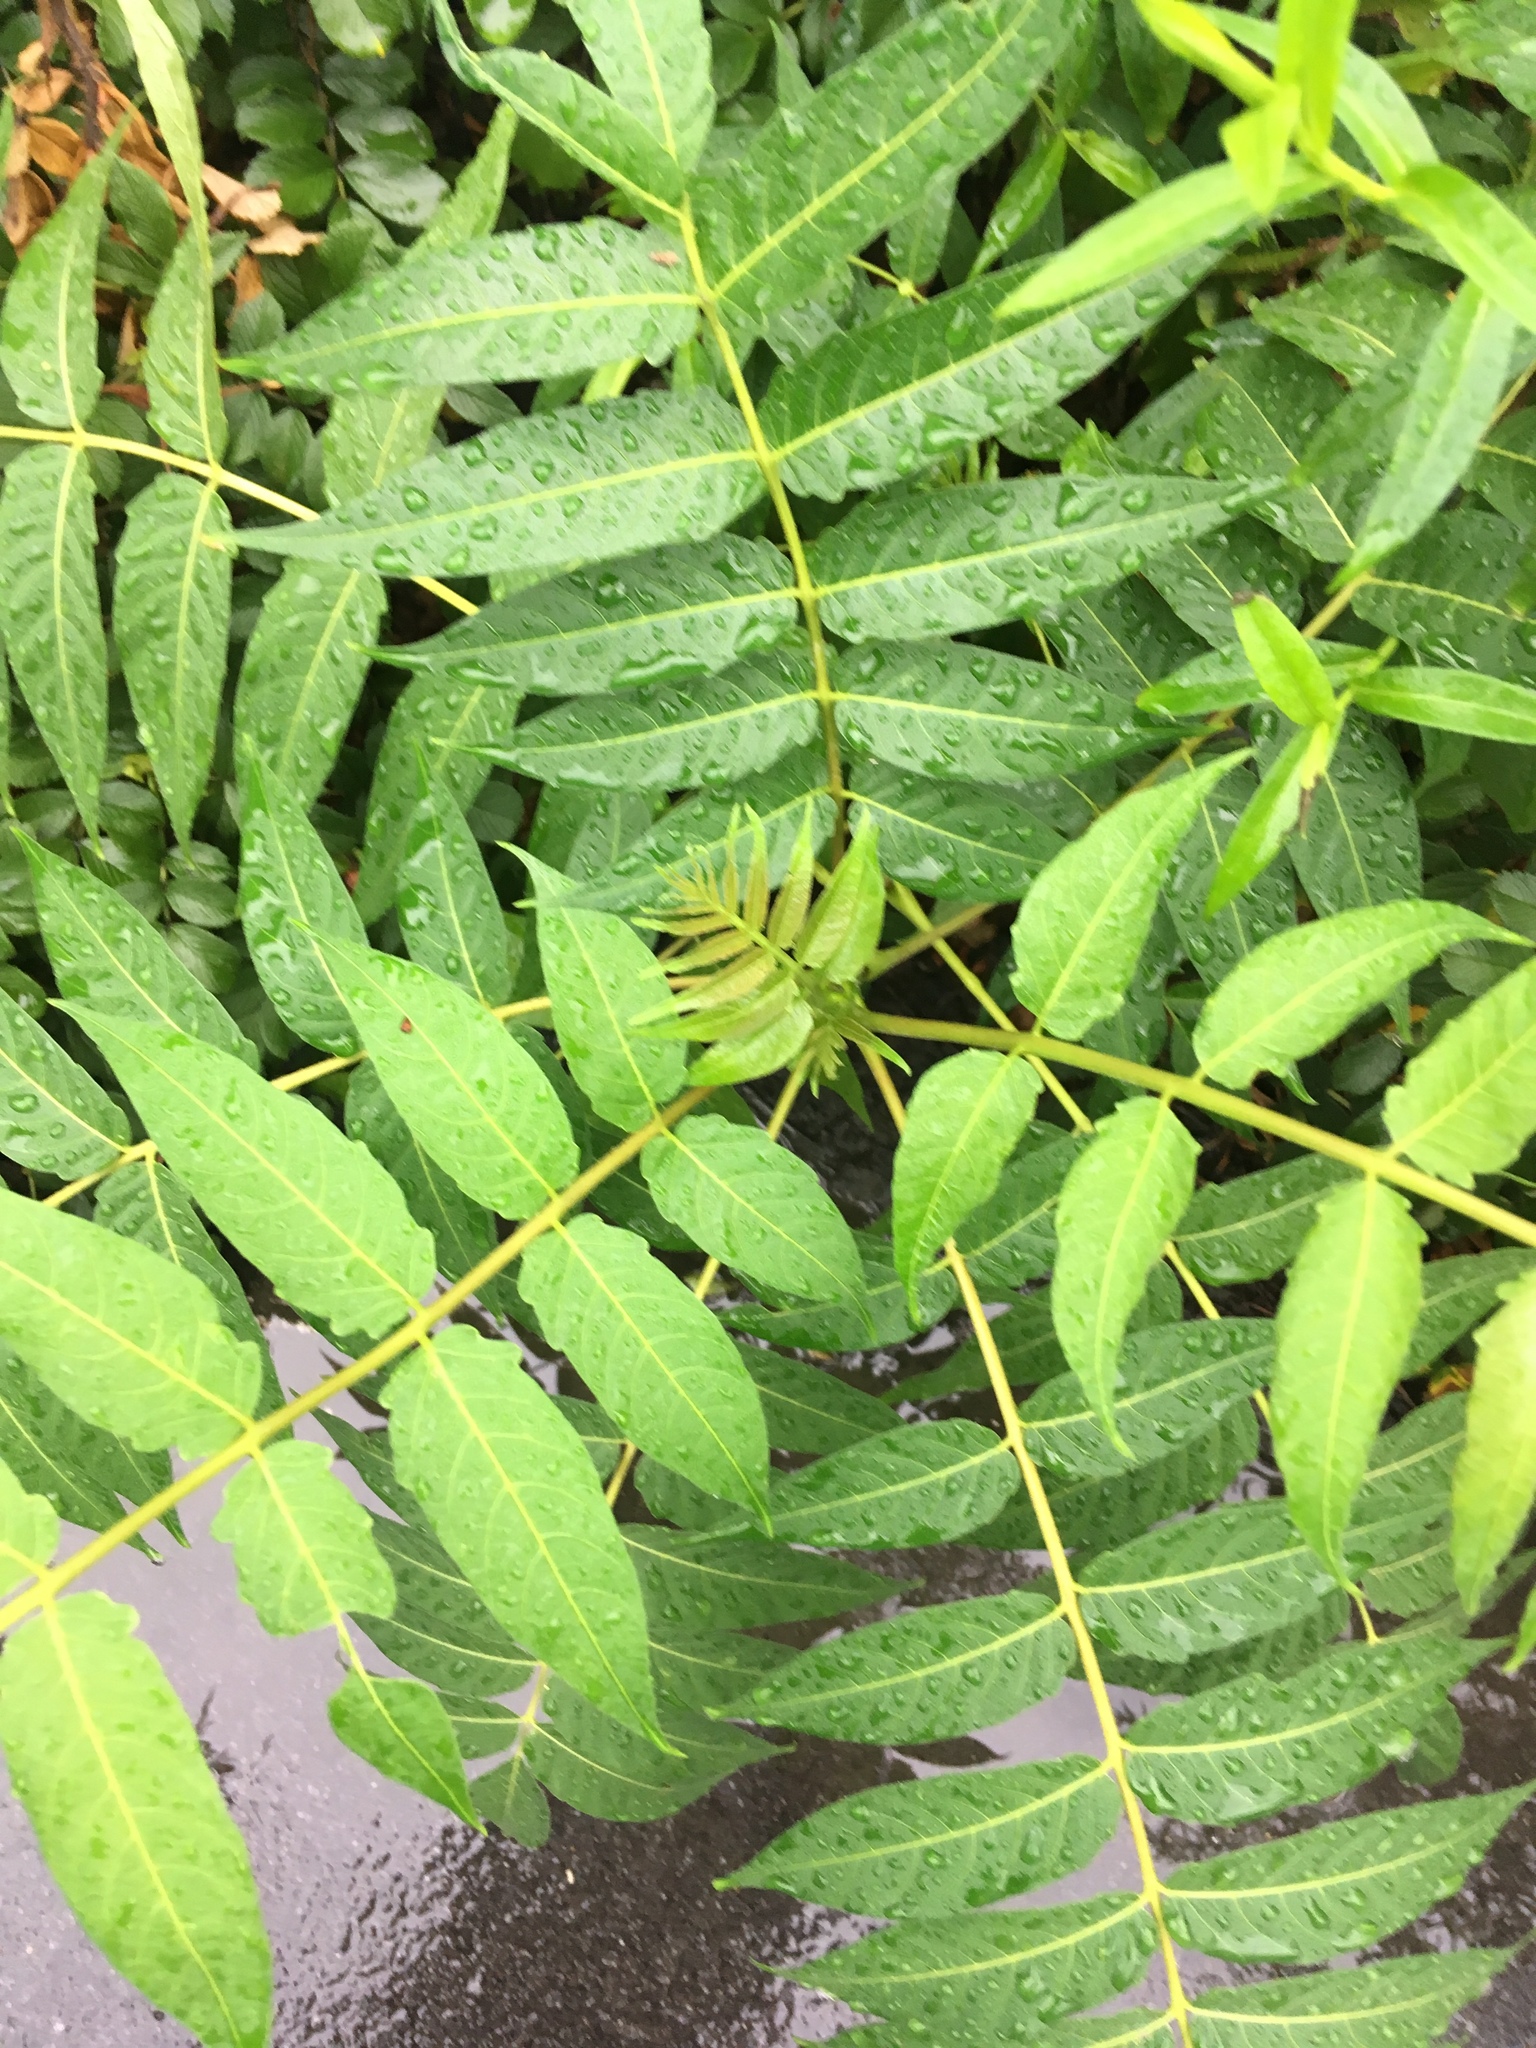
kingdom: Plantae
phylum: Tracheophyta
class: Magnoliopsida
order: Sapindales
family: Simaroubaceae
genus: Ailanthus
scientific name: Ailanthus altissima
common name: Tree-of-heaven
